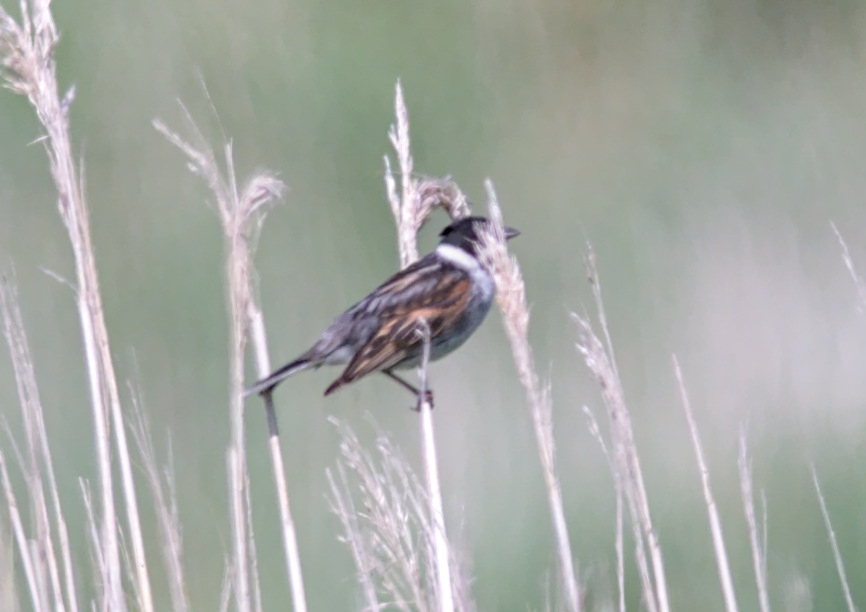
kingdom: Animalia
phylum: Chordata
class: Aves
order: Passeriformes
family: Emberizidae
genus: Emberiza
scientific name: Emberiza schoeniclus
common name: Reed bunting
